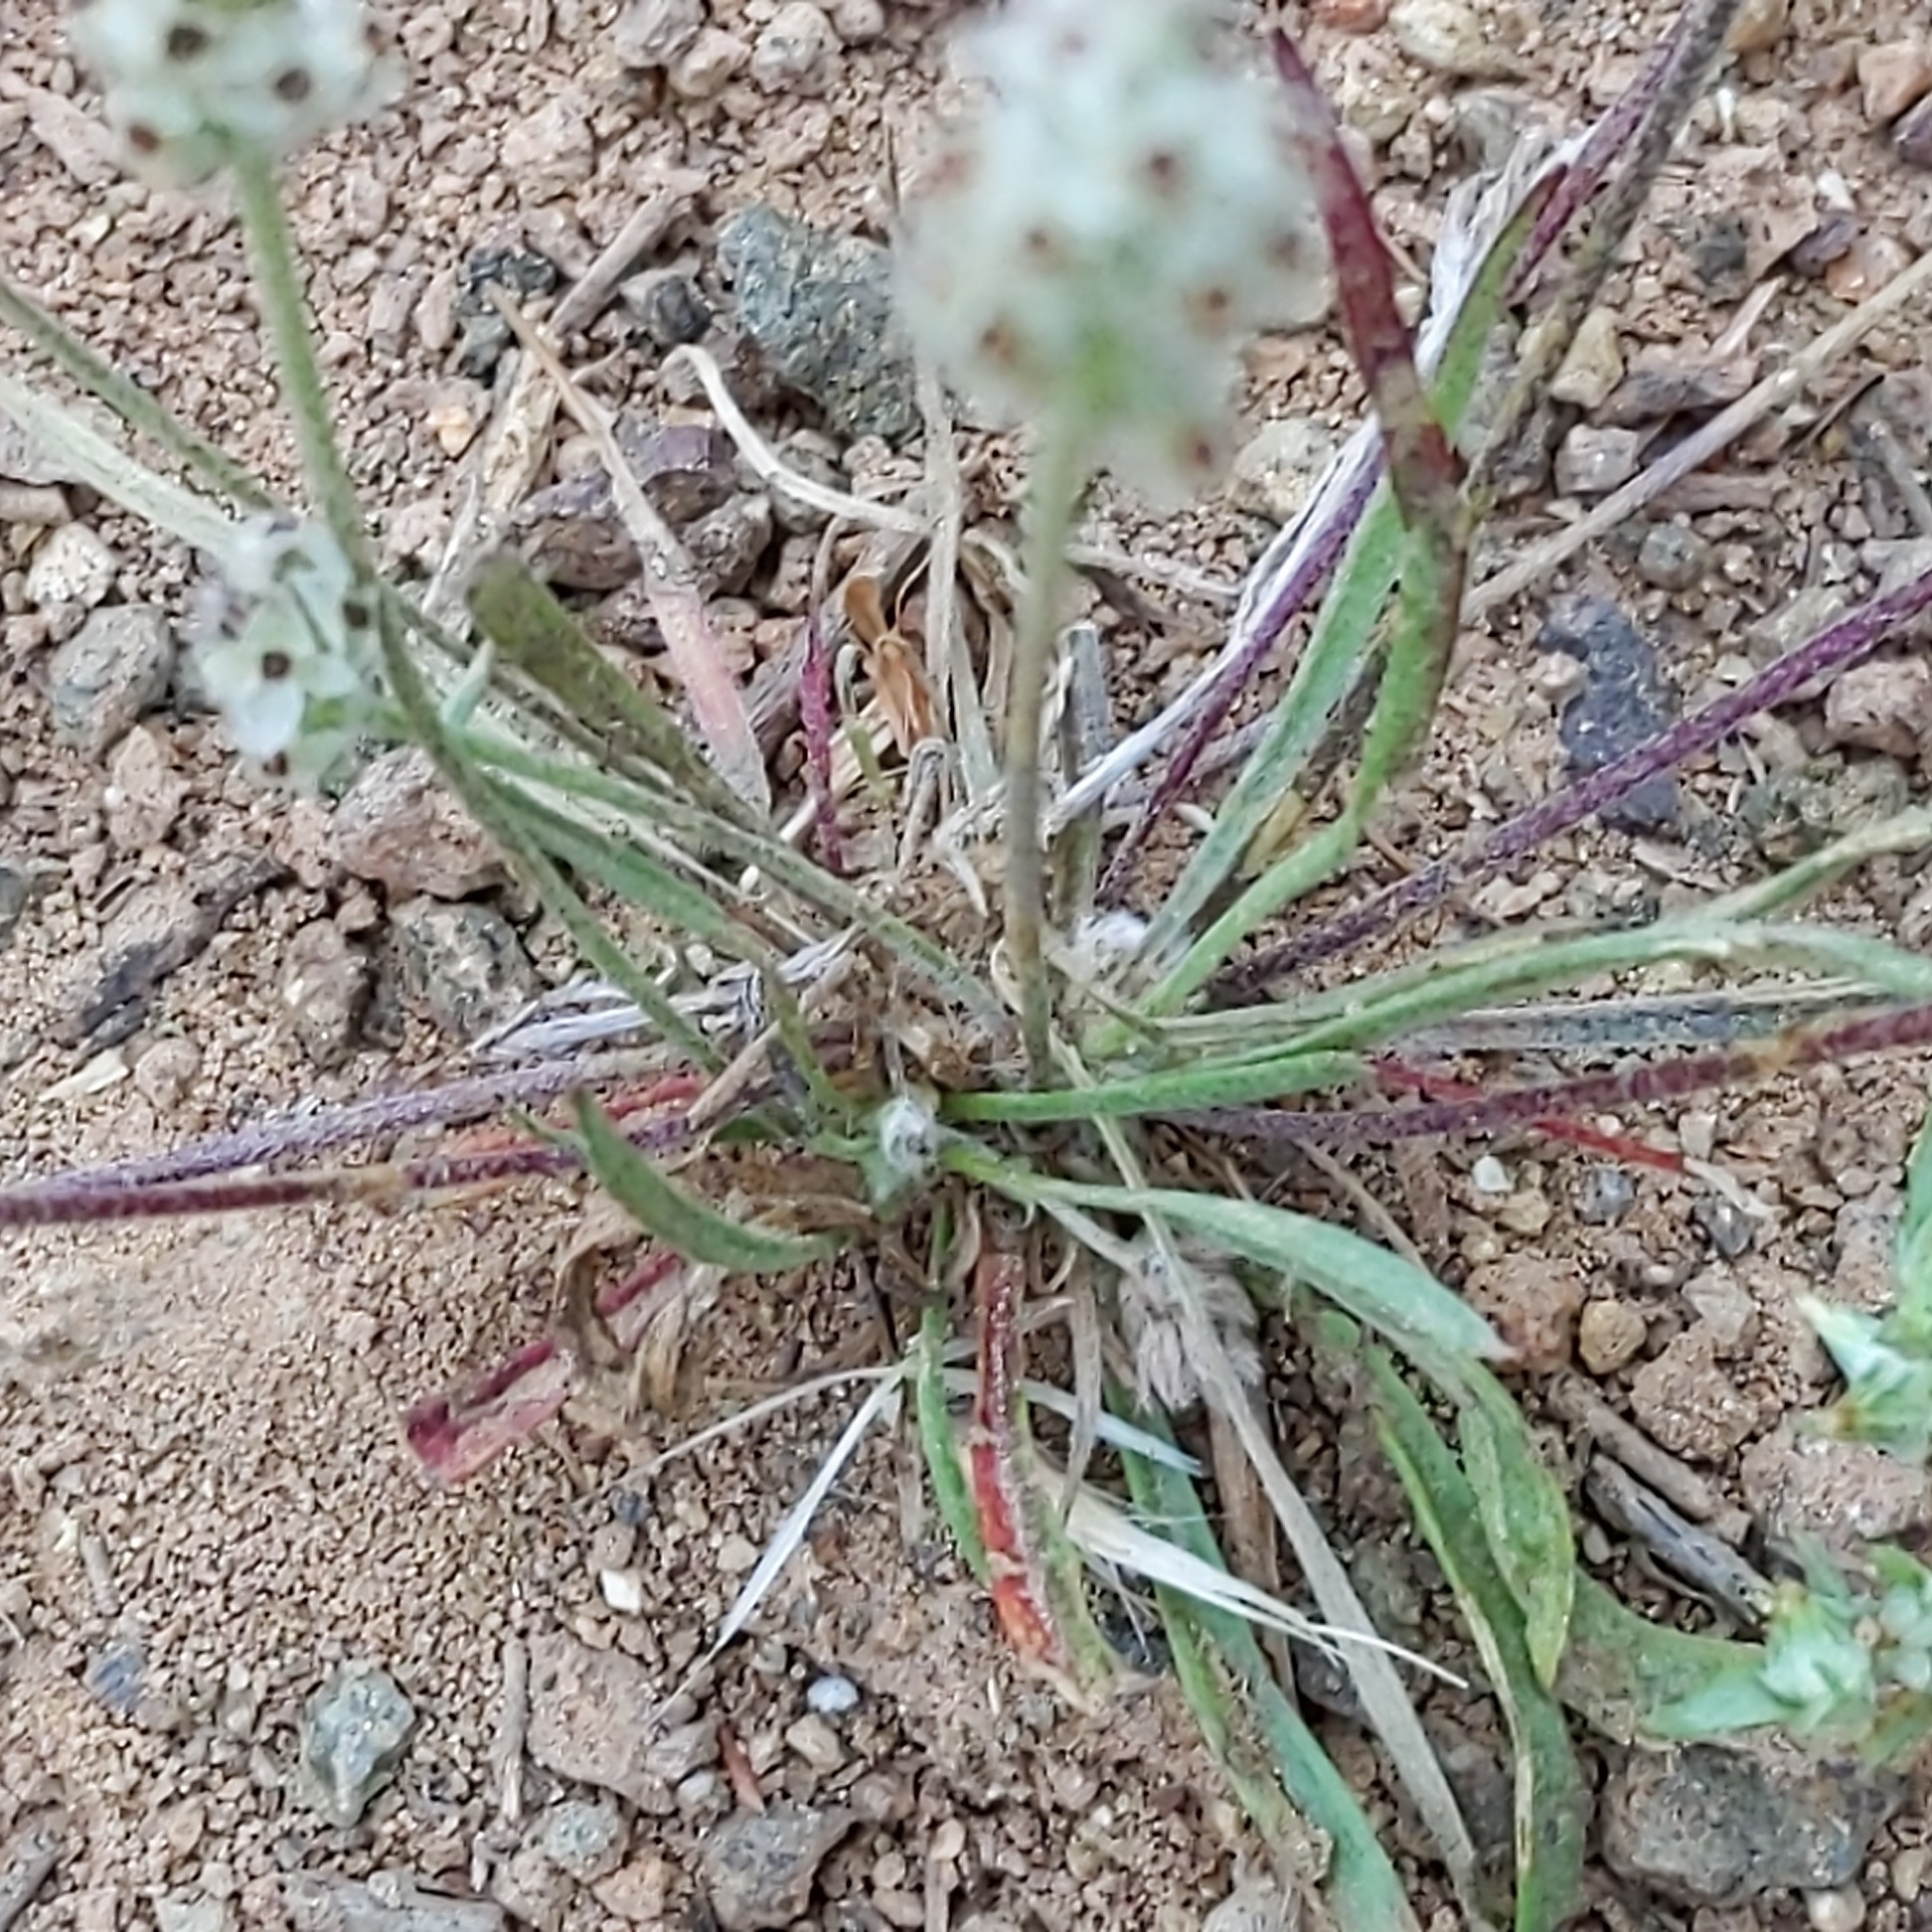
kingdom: Plantae
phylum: Tracheophyta
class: Magnoliopsida
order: Lamiales
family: Plantaginaceae
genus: Plantago
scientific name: Plantago erecta
